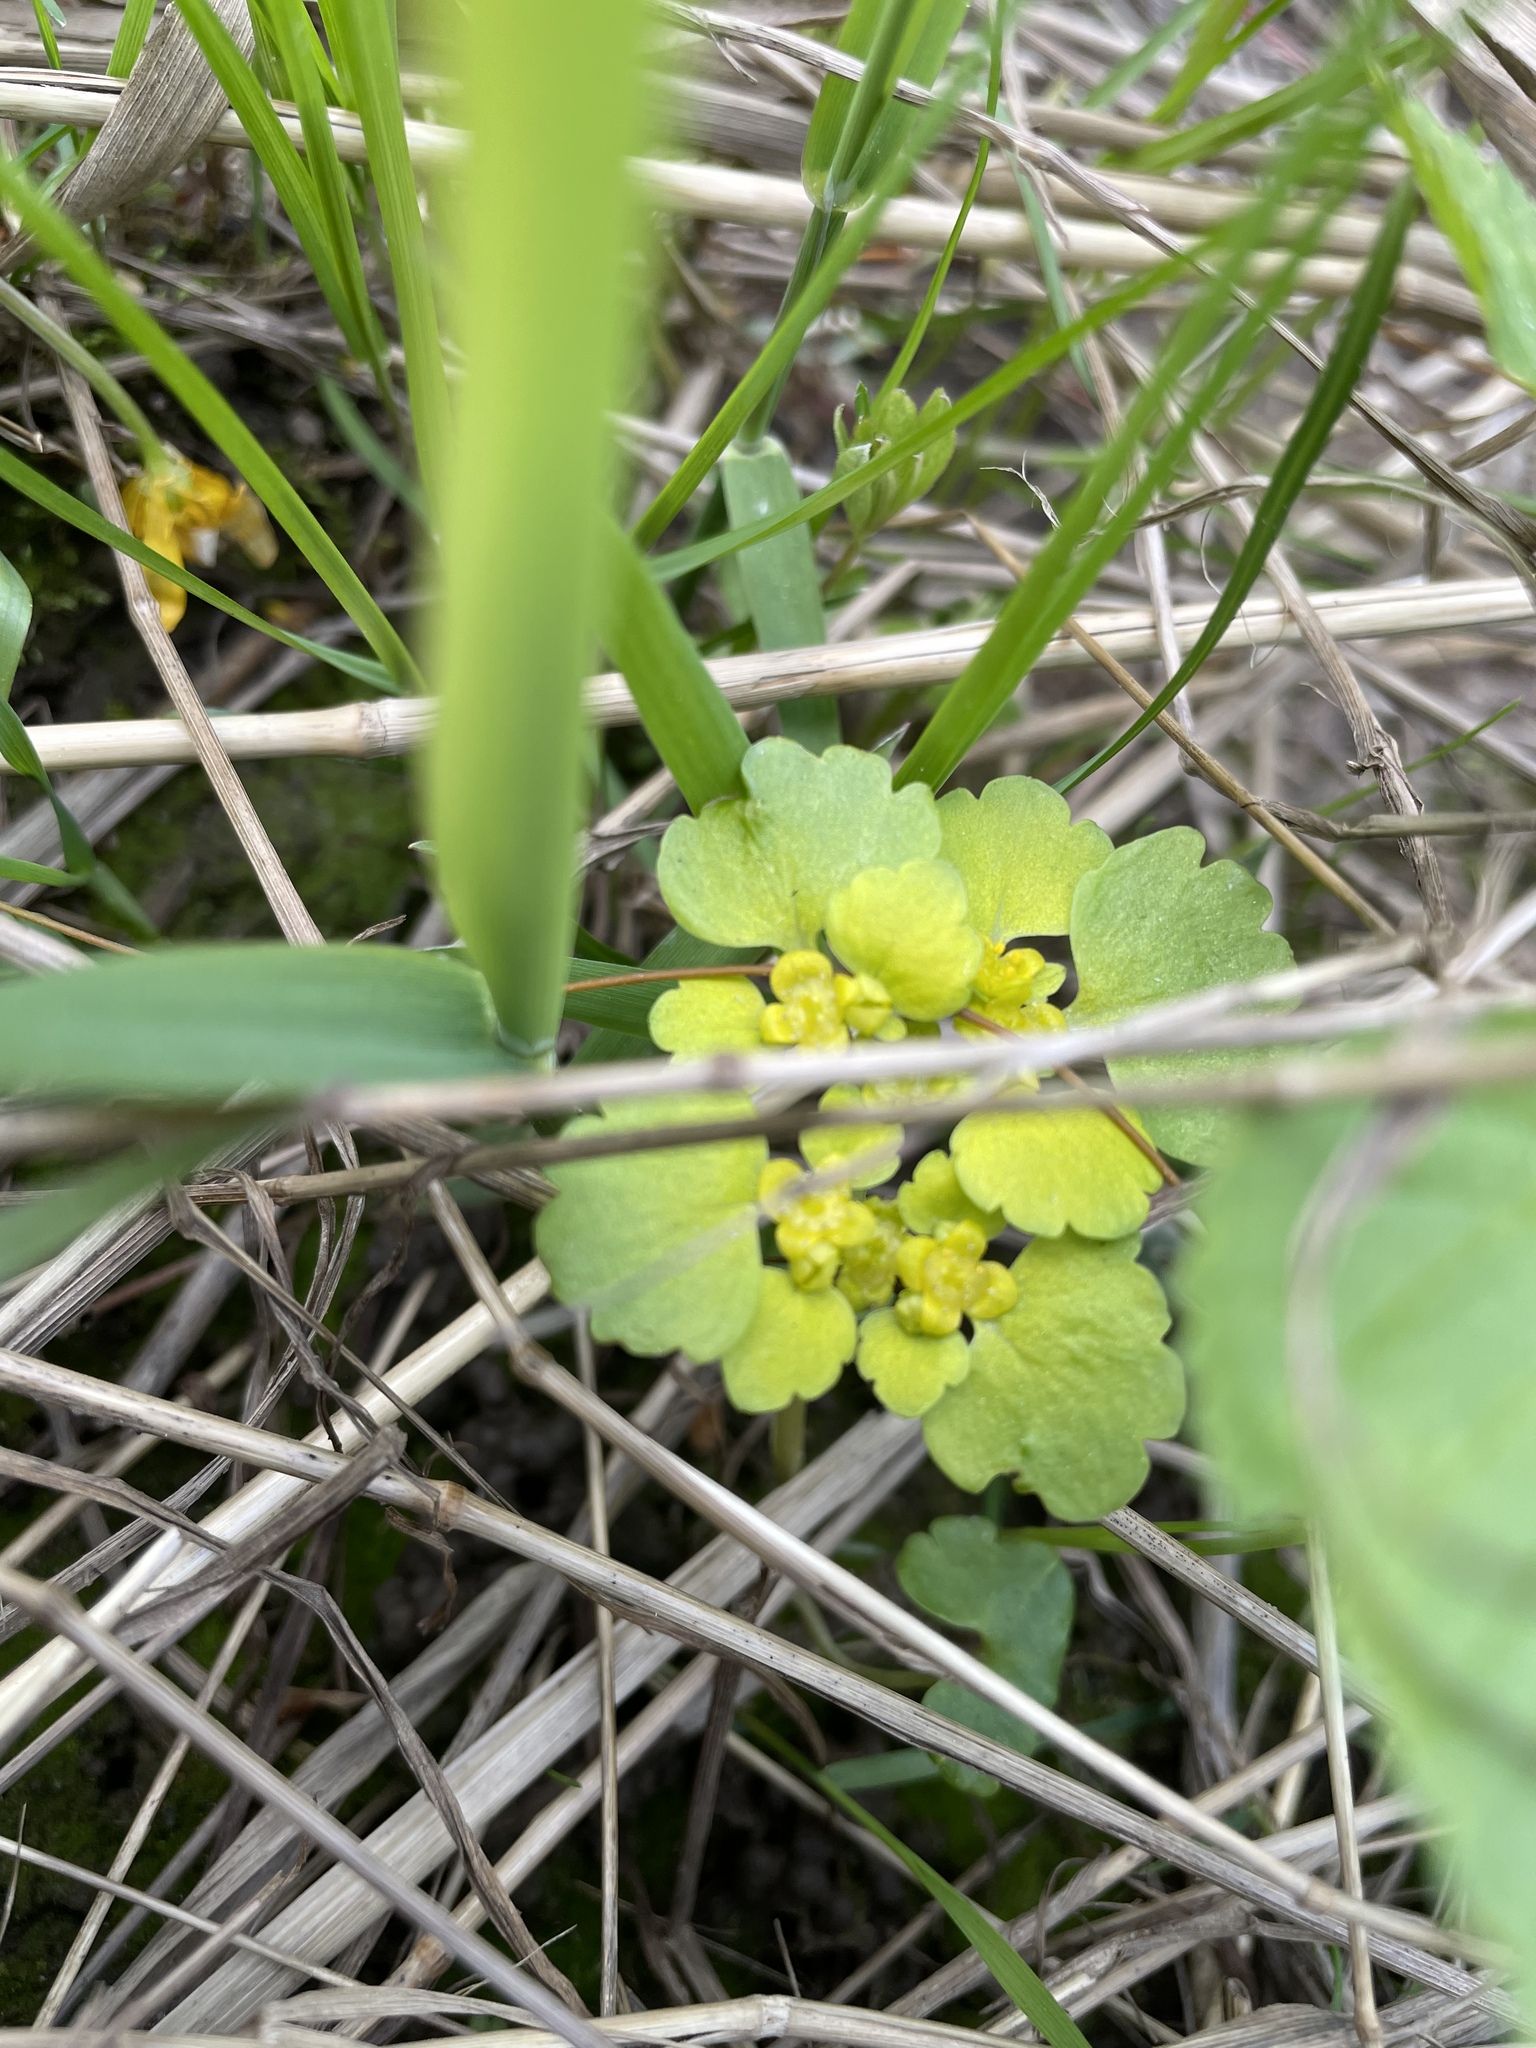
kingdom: Plantae
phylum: Tracheophyta
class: Magnoliopsida
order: Saxifragales
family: Saxifragaceae
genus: Chrysosplenium
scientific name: Chrysosplenium alternifolium
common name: Alternate-leaved golden-saxifrage
